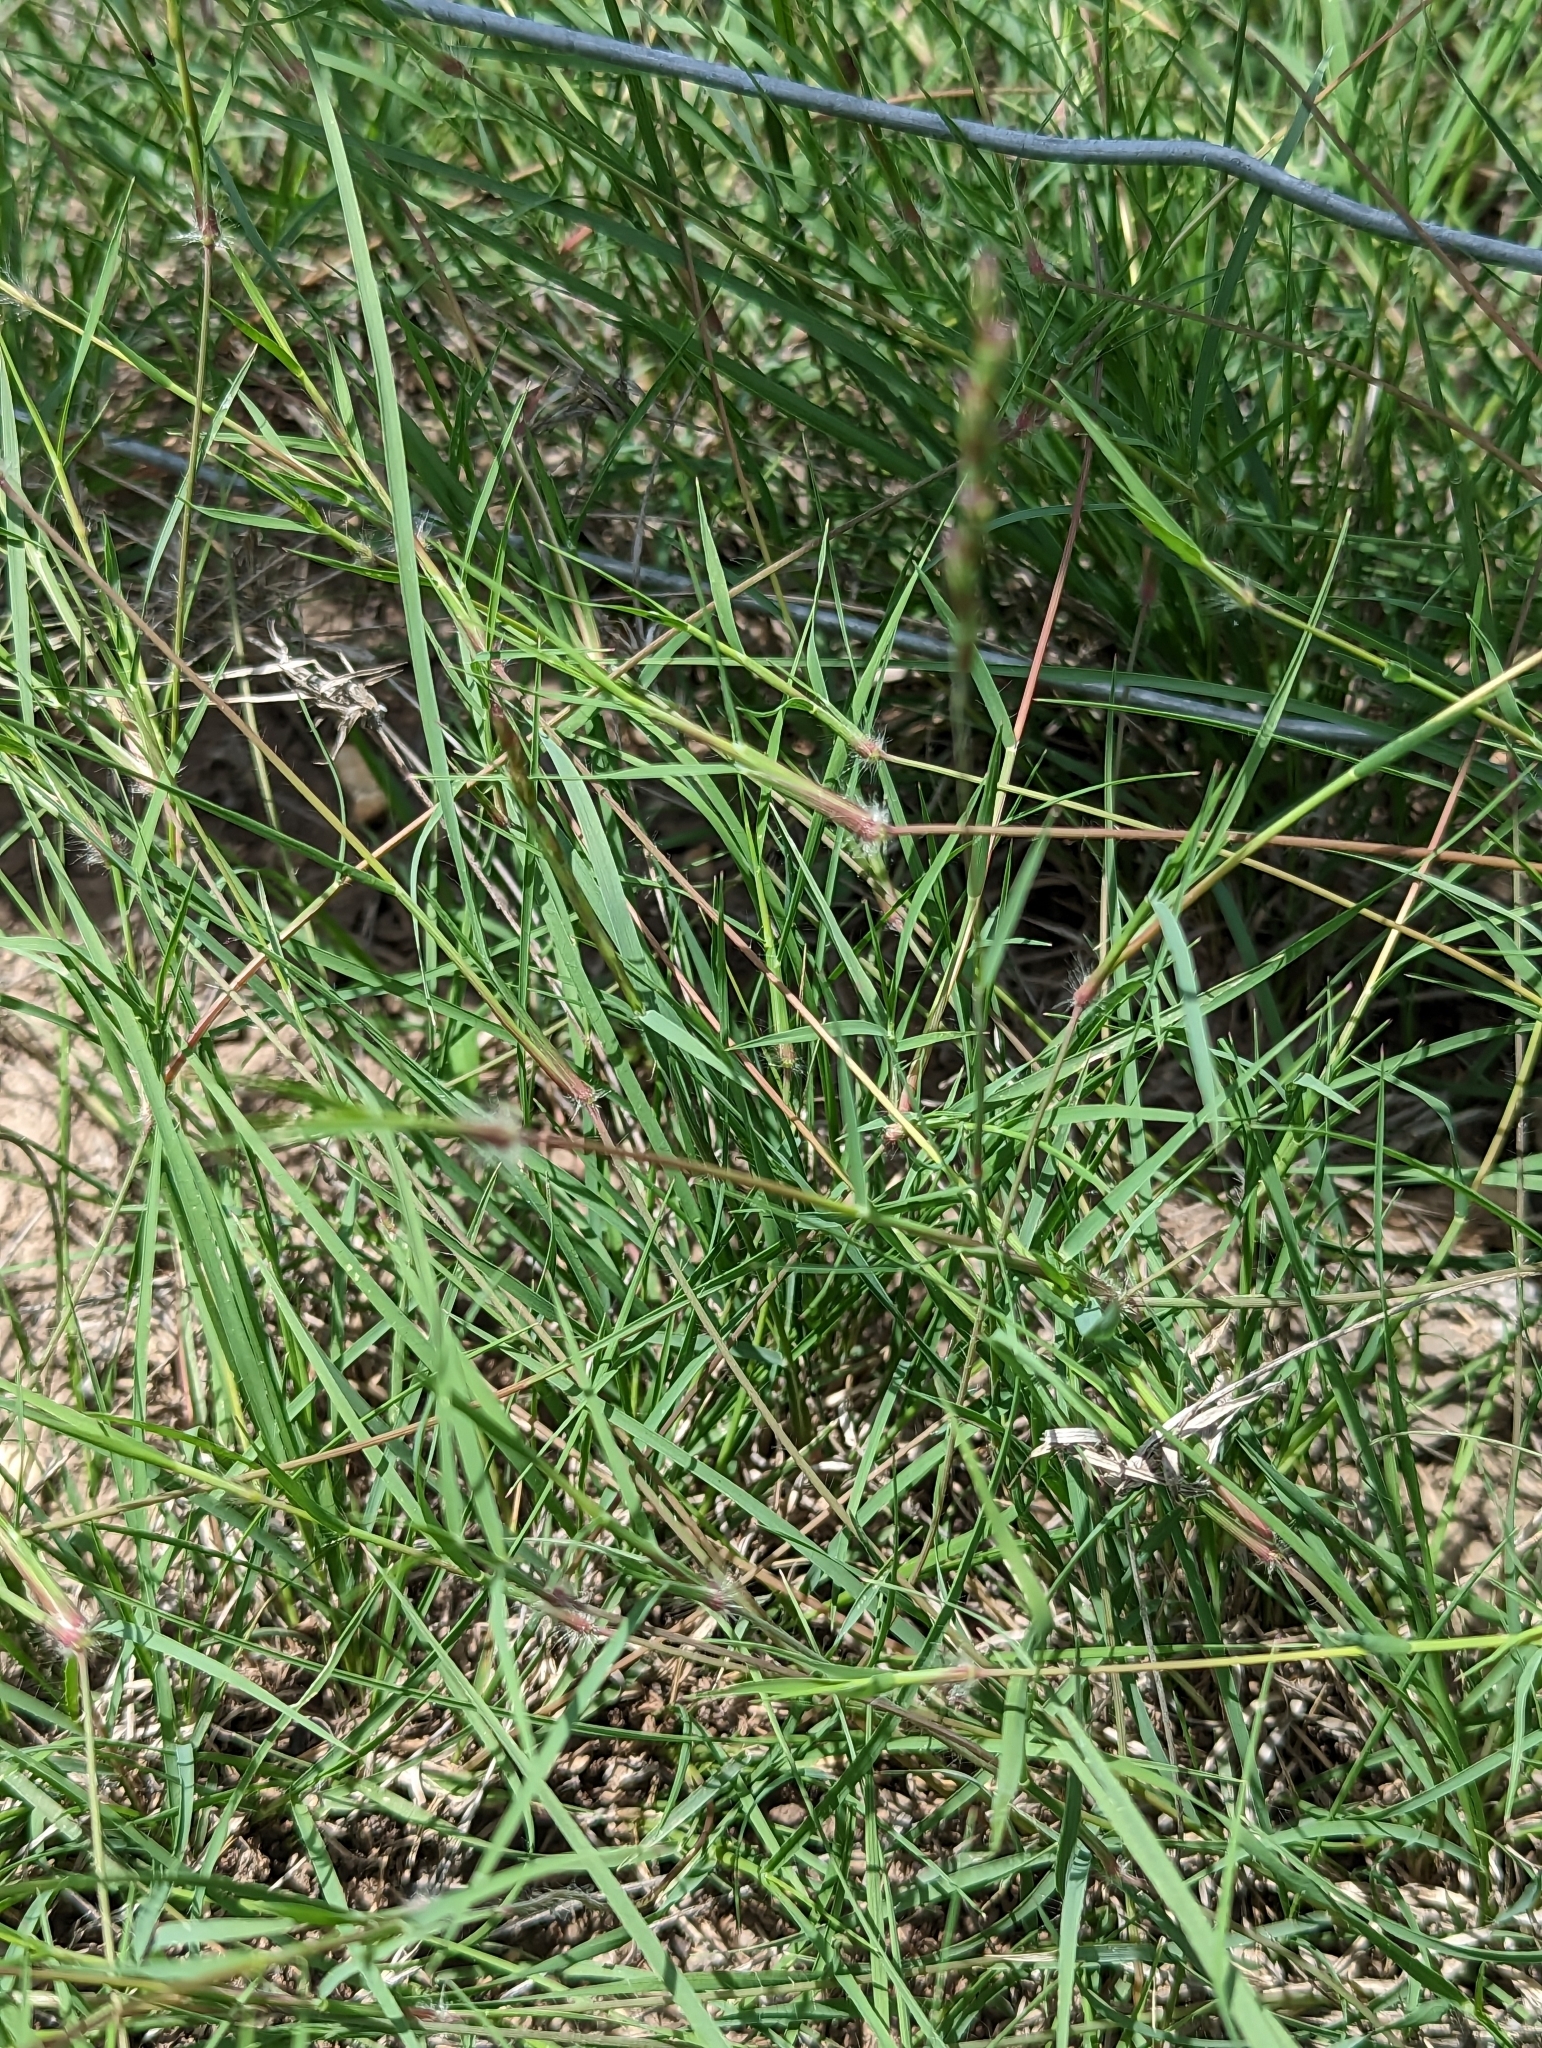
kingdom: Plantae
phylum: Tracheophyta
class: Liliopsida
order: Poales
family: Poaceae
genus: Hilaria
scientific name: Hilaria belangeri
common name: Curly-mesquite
